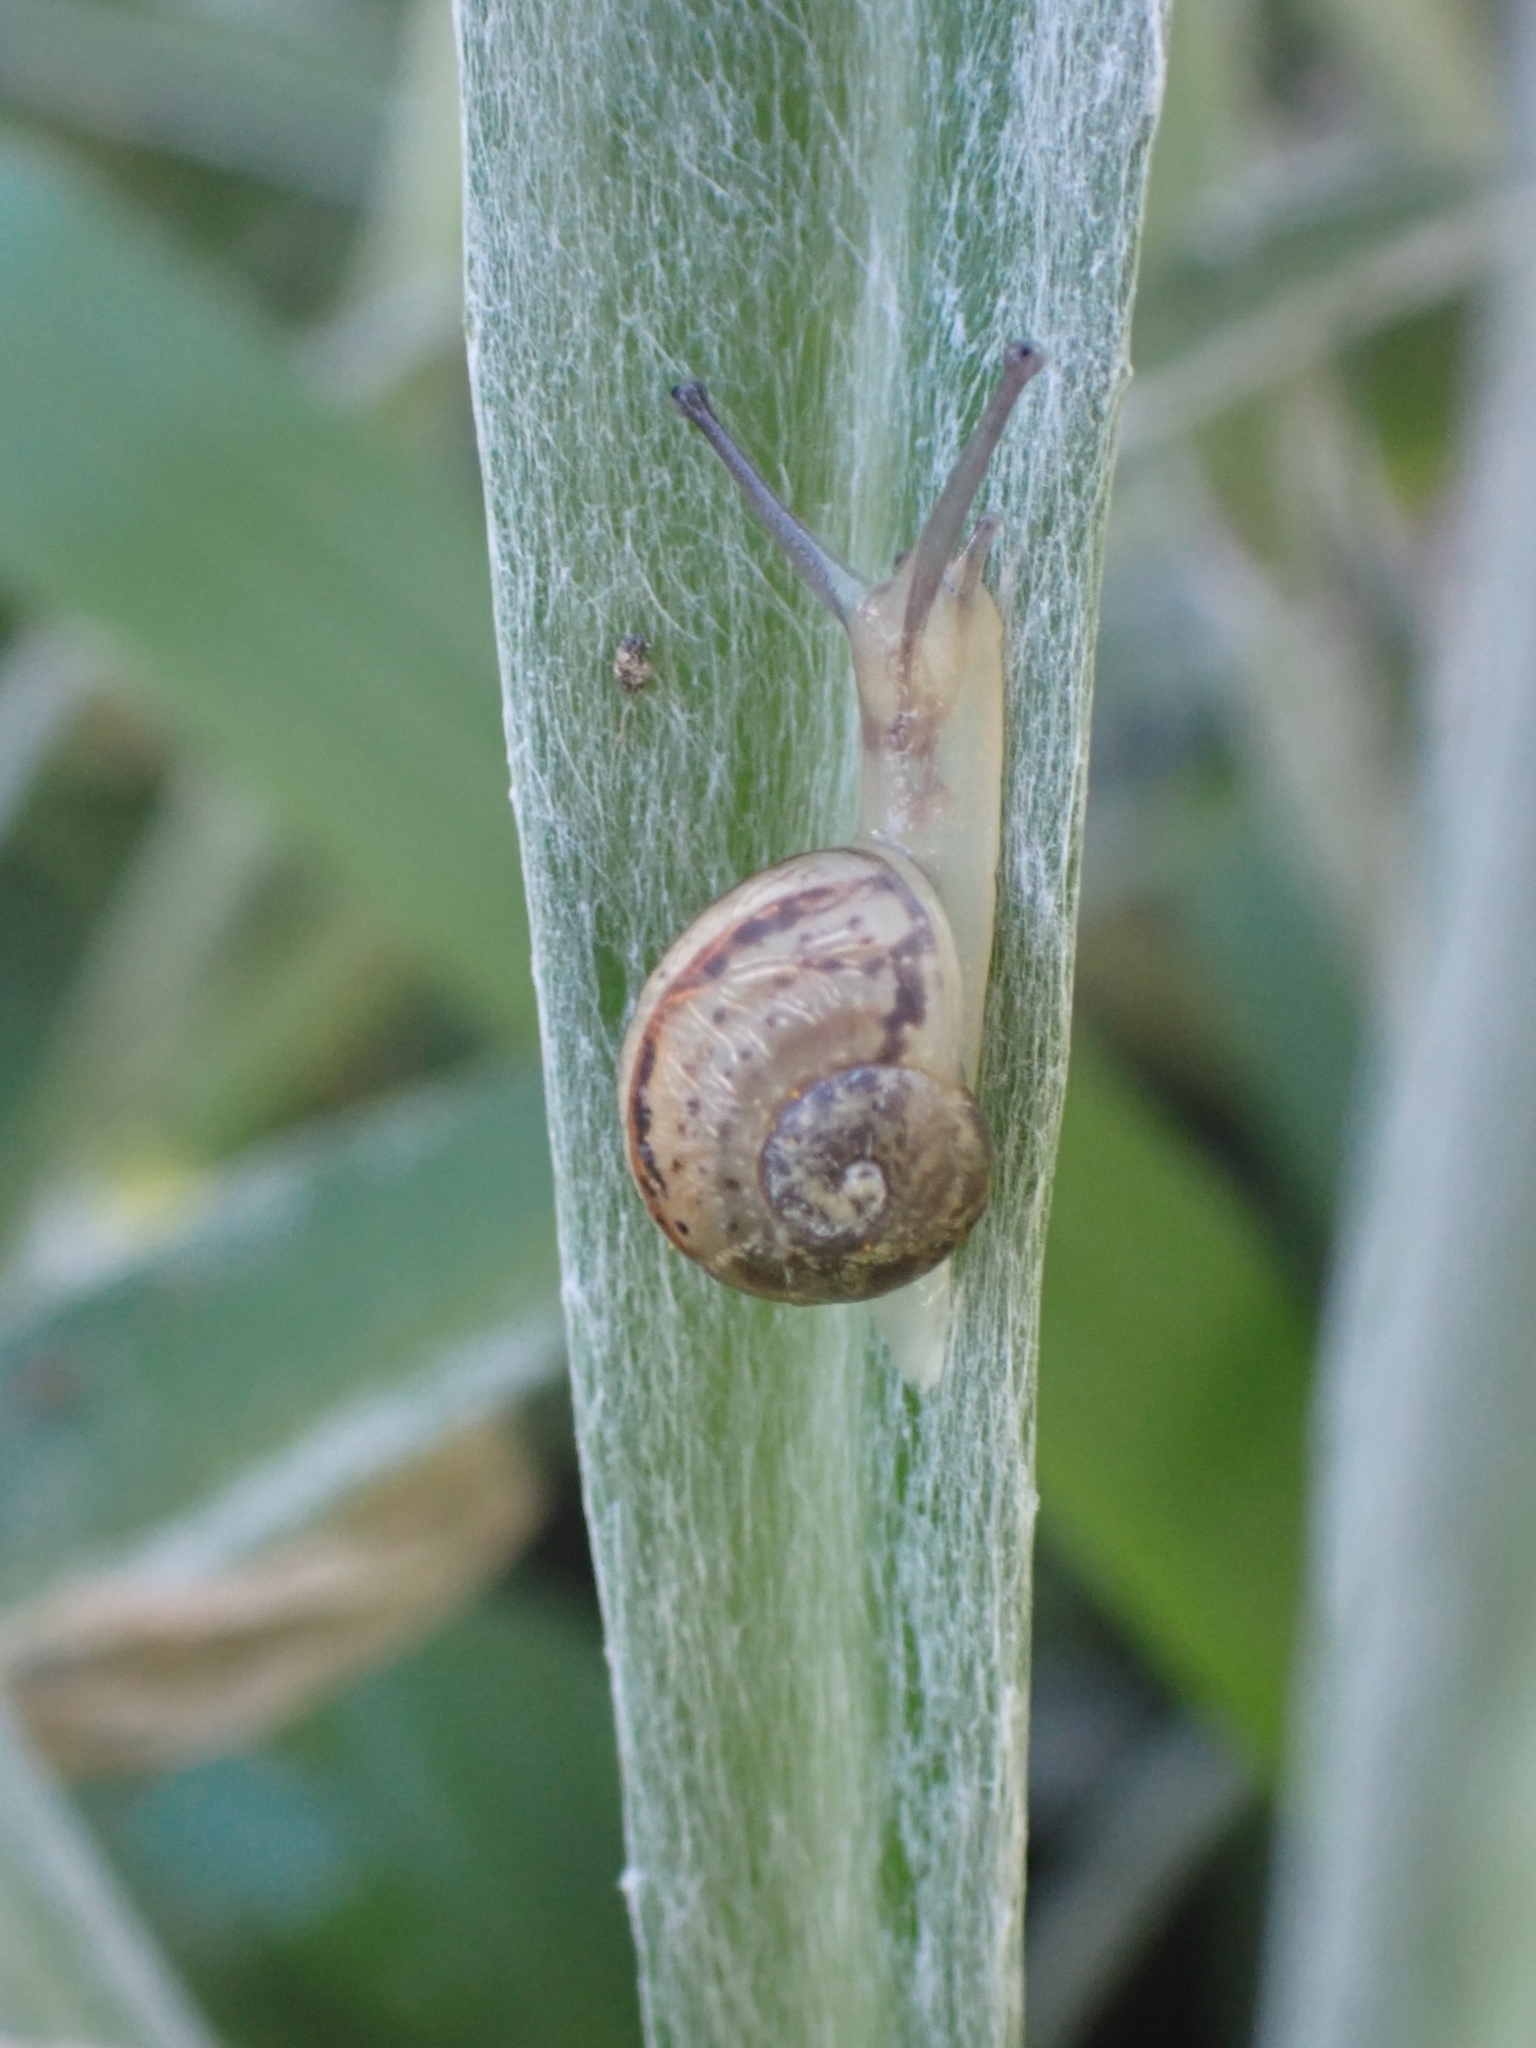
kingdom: Animalia
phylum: Mollusca
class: Gastropoda
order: Stylommatophora
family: Helicidae
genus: Cornu
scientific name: Cornu aspersum
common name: Brown garden snail
